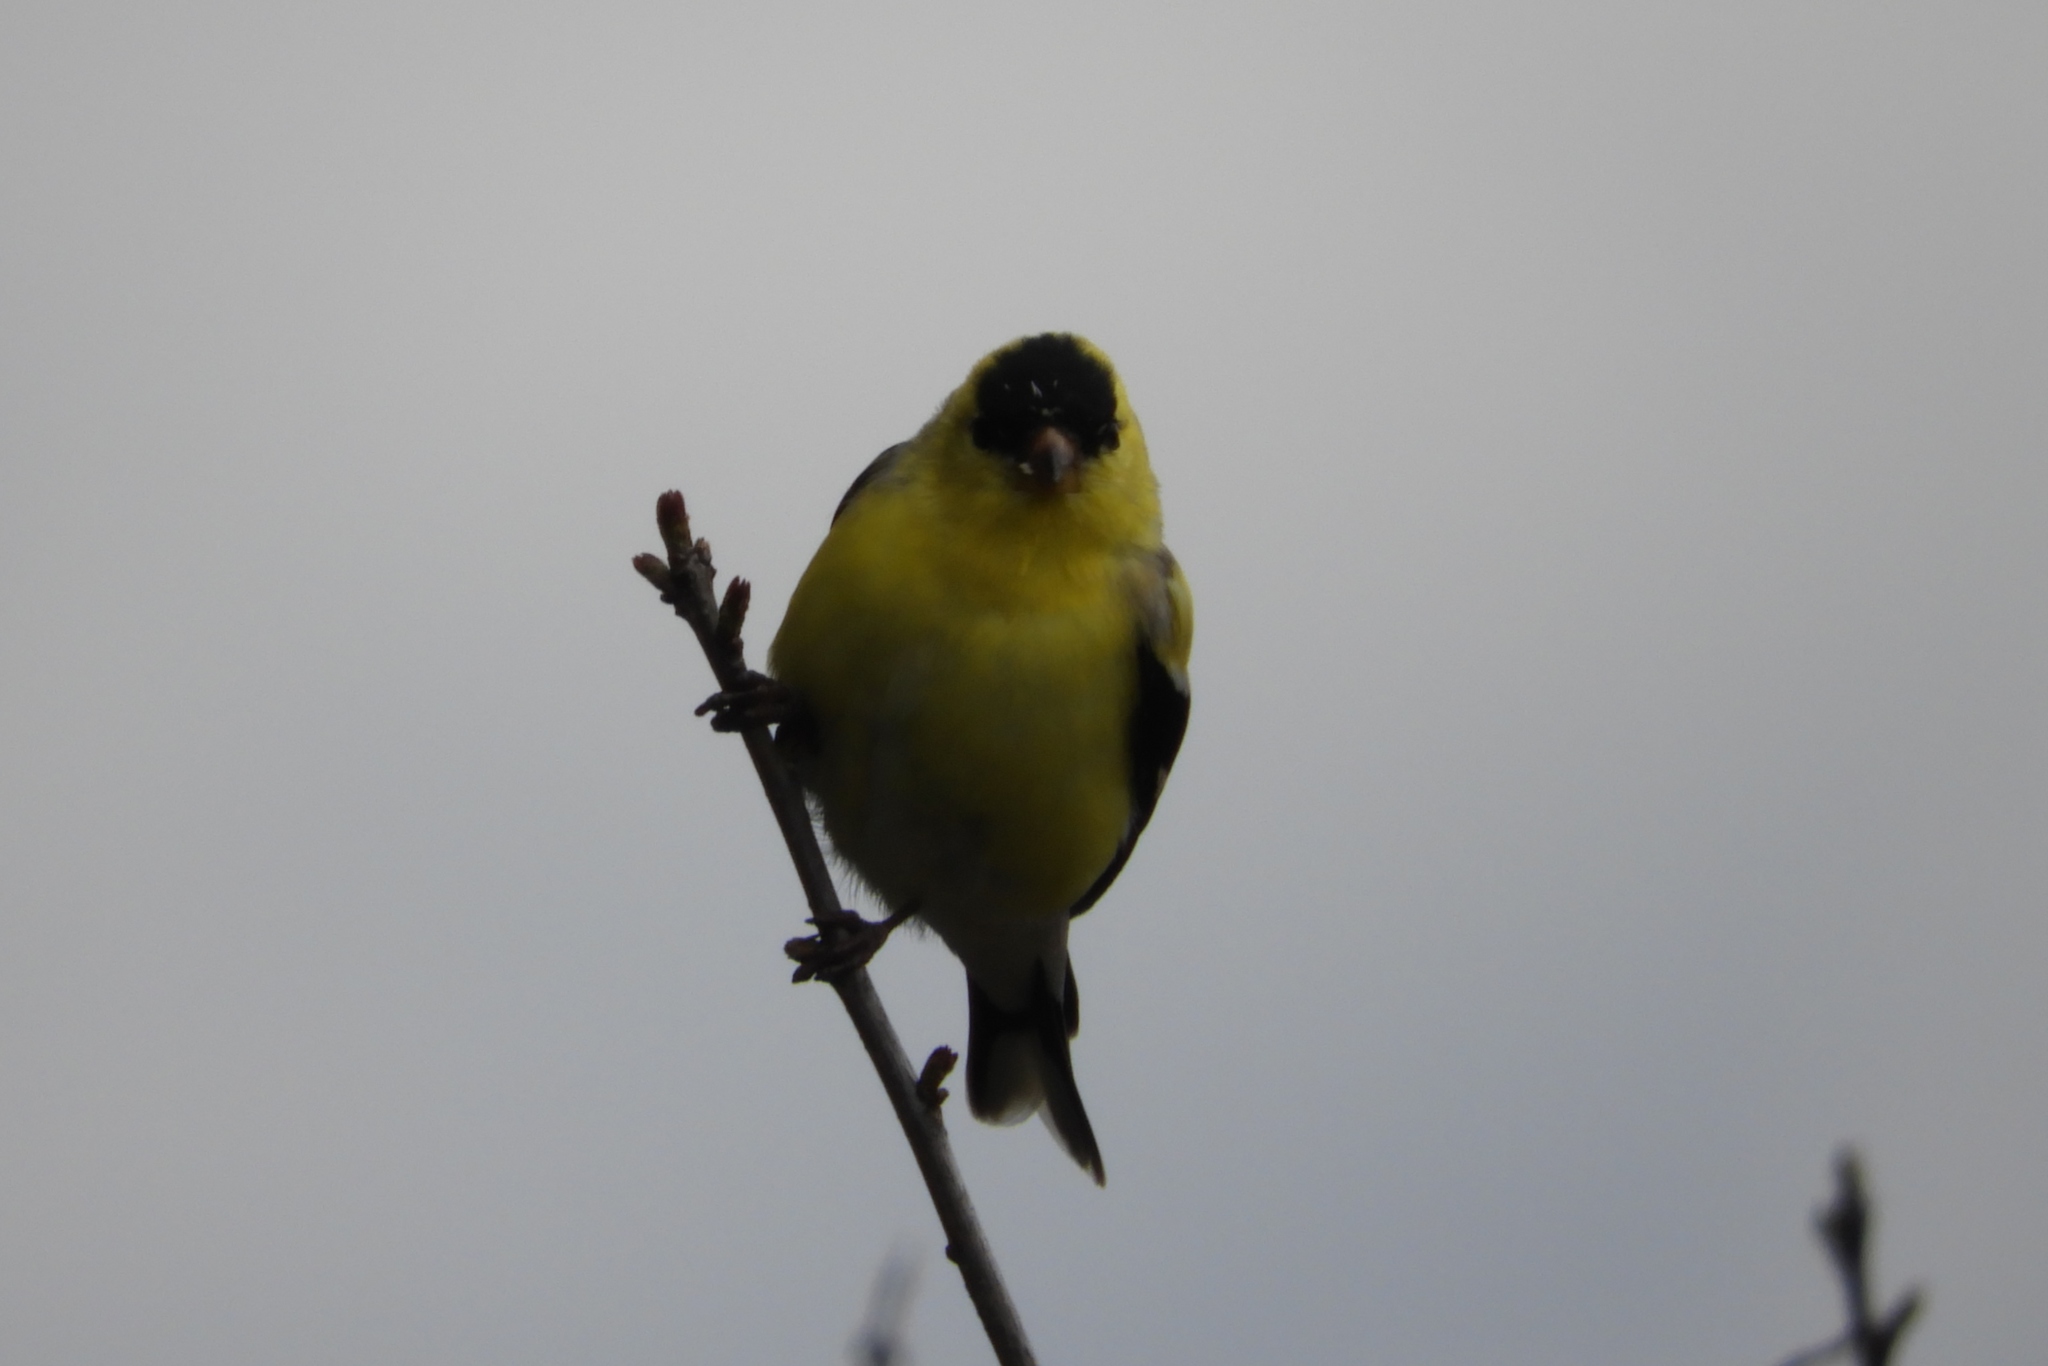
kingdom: Animalia
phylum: Chordata
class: Aves
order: Passeriformes
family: Fringillidae
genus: Spinus
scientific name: Spinus tristis
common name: American goldfinch
